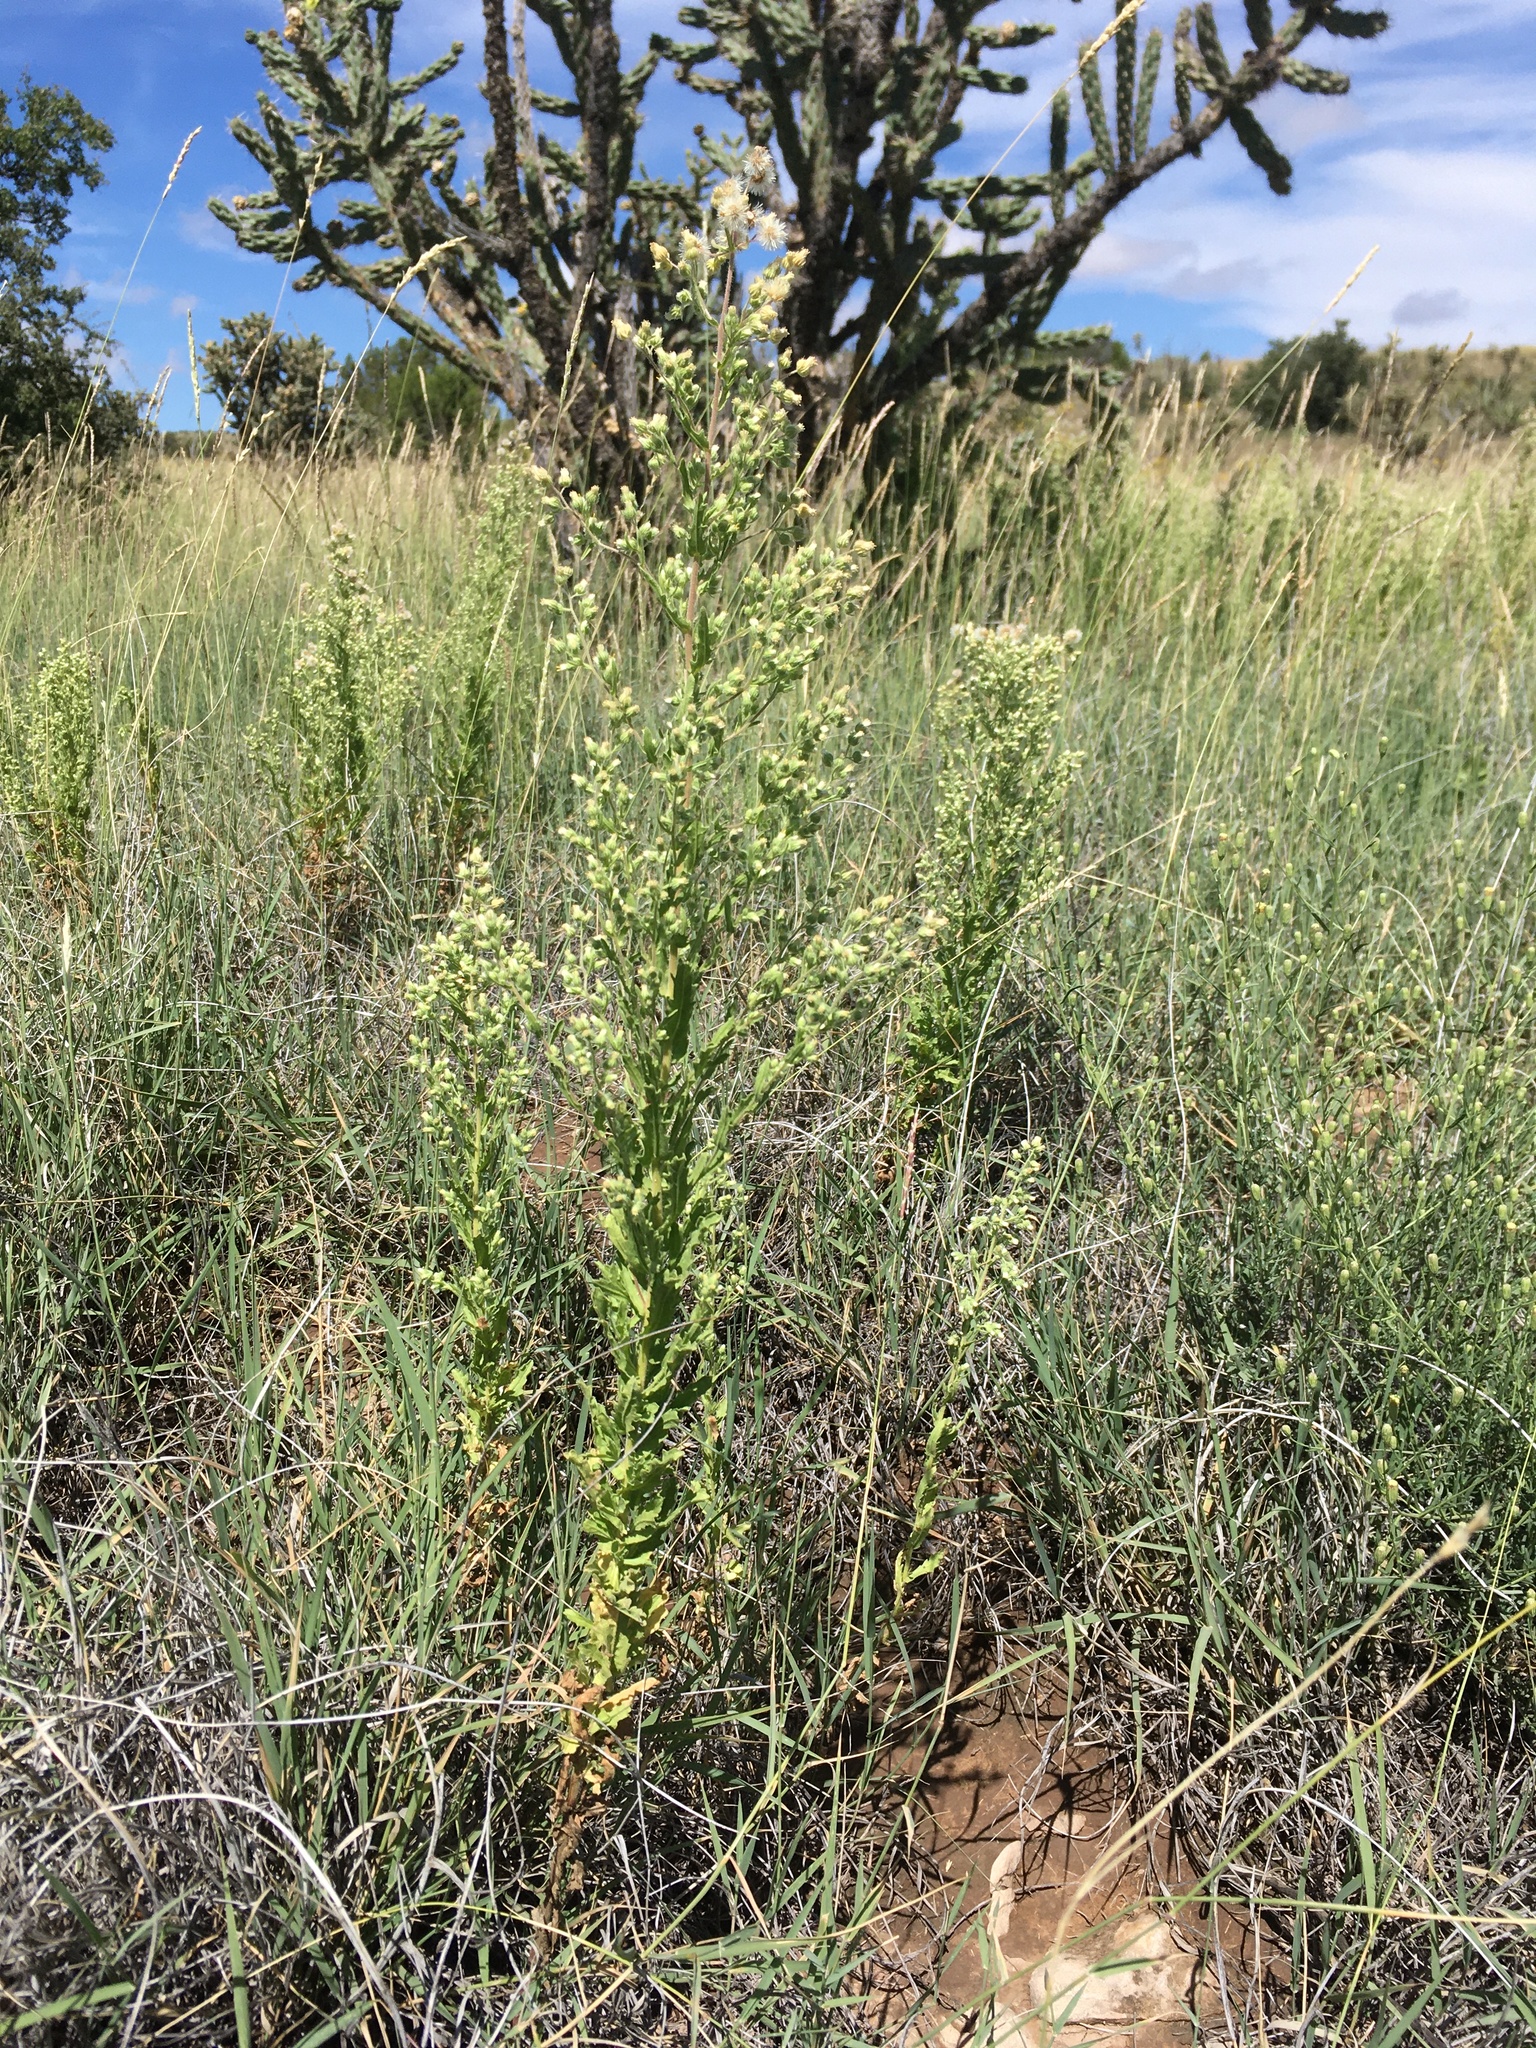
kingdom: Plantae
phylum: Tracheophyta
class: Magnoliopsida
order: Asterales
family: Asteraceae
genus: Laennecia
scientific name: Laennecia coulteri
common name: Coulter's woolwort
